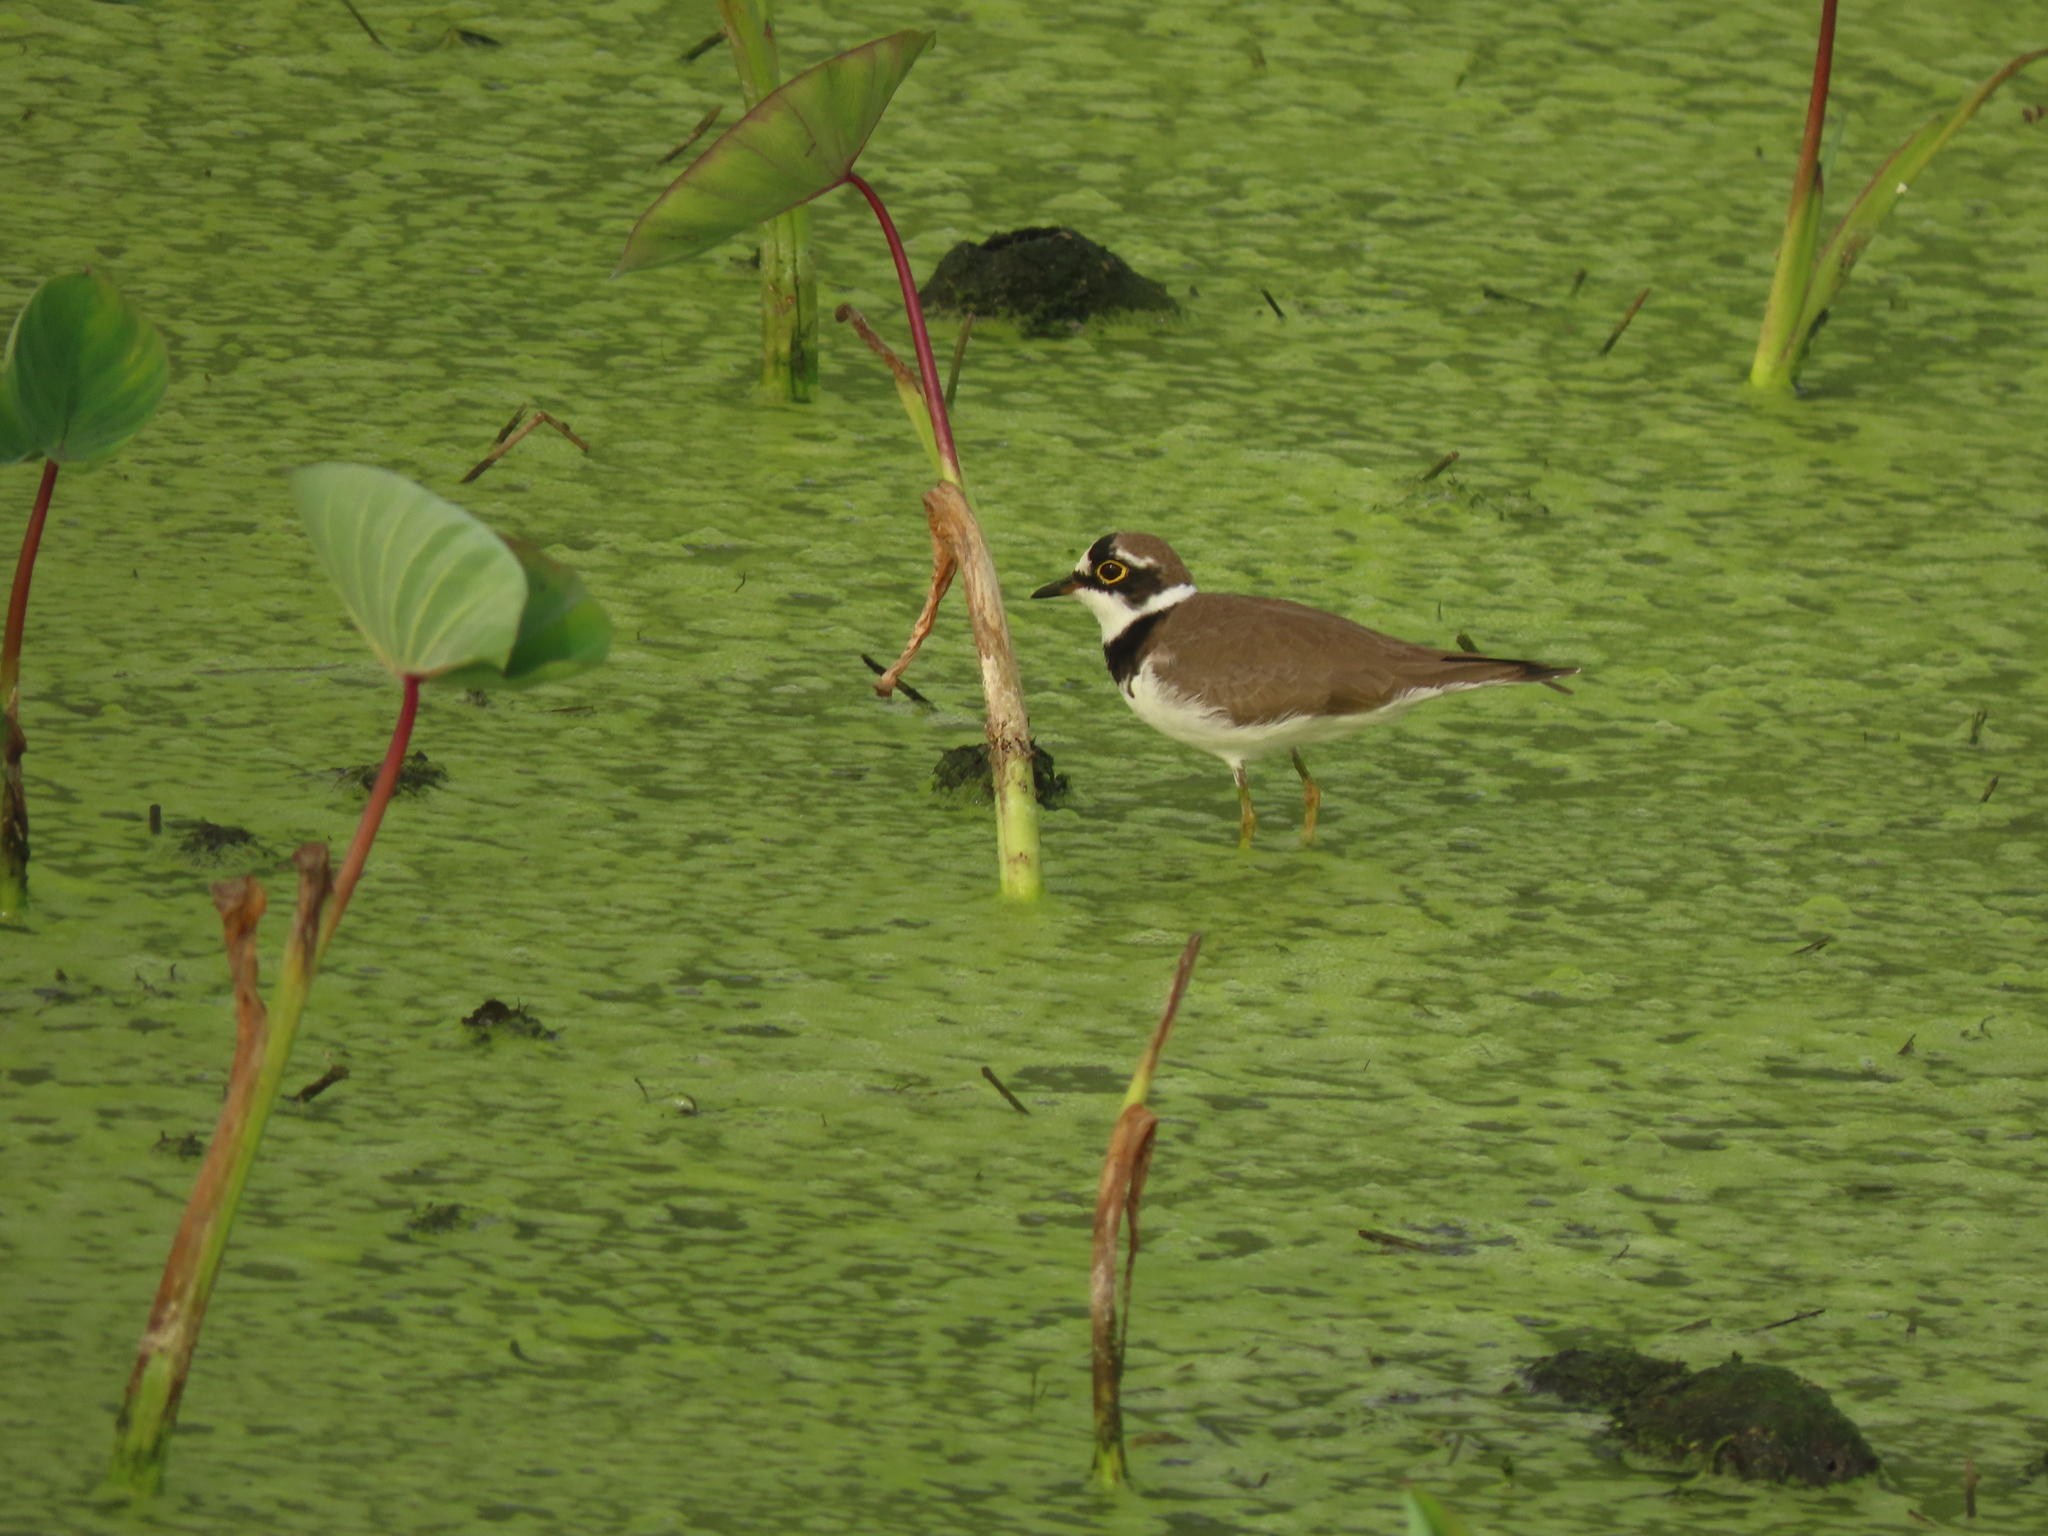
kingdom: Animalia
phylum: Chordata
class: Aves
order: Charadriiformes
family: Charadriidae
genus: Charadrius
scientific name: Charadrius dubius
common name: Little ringed plover
